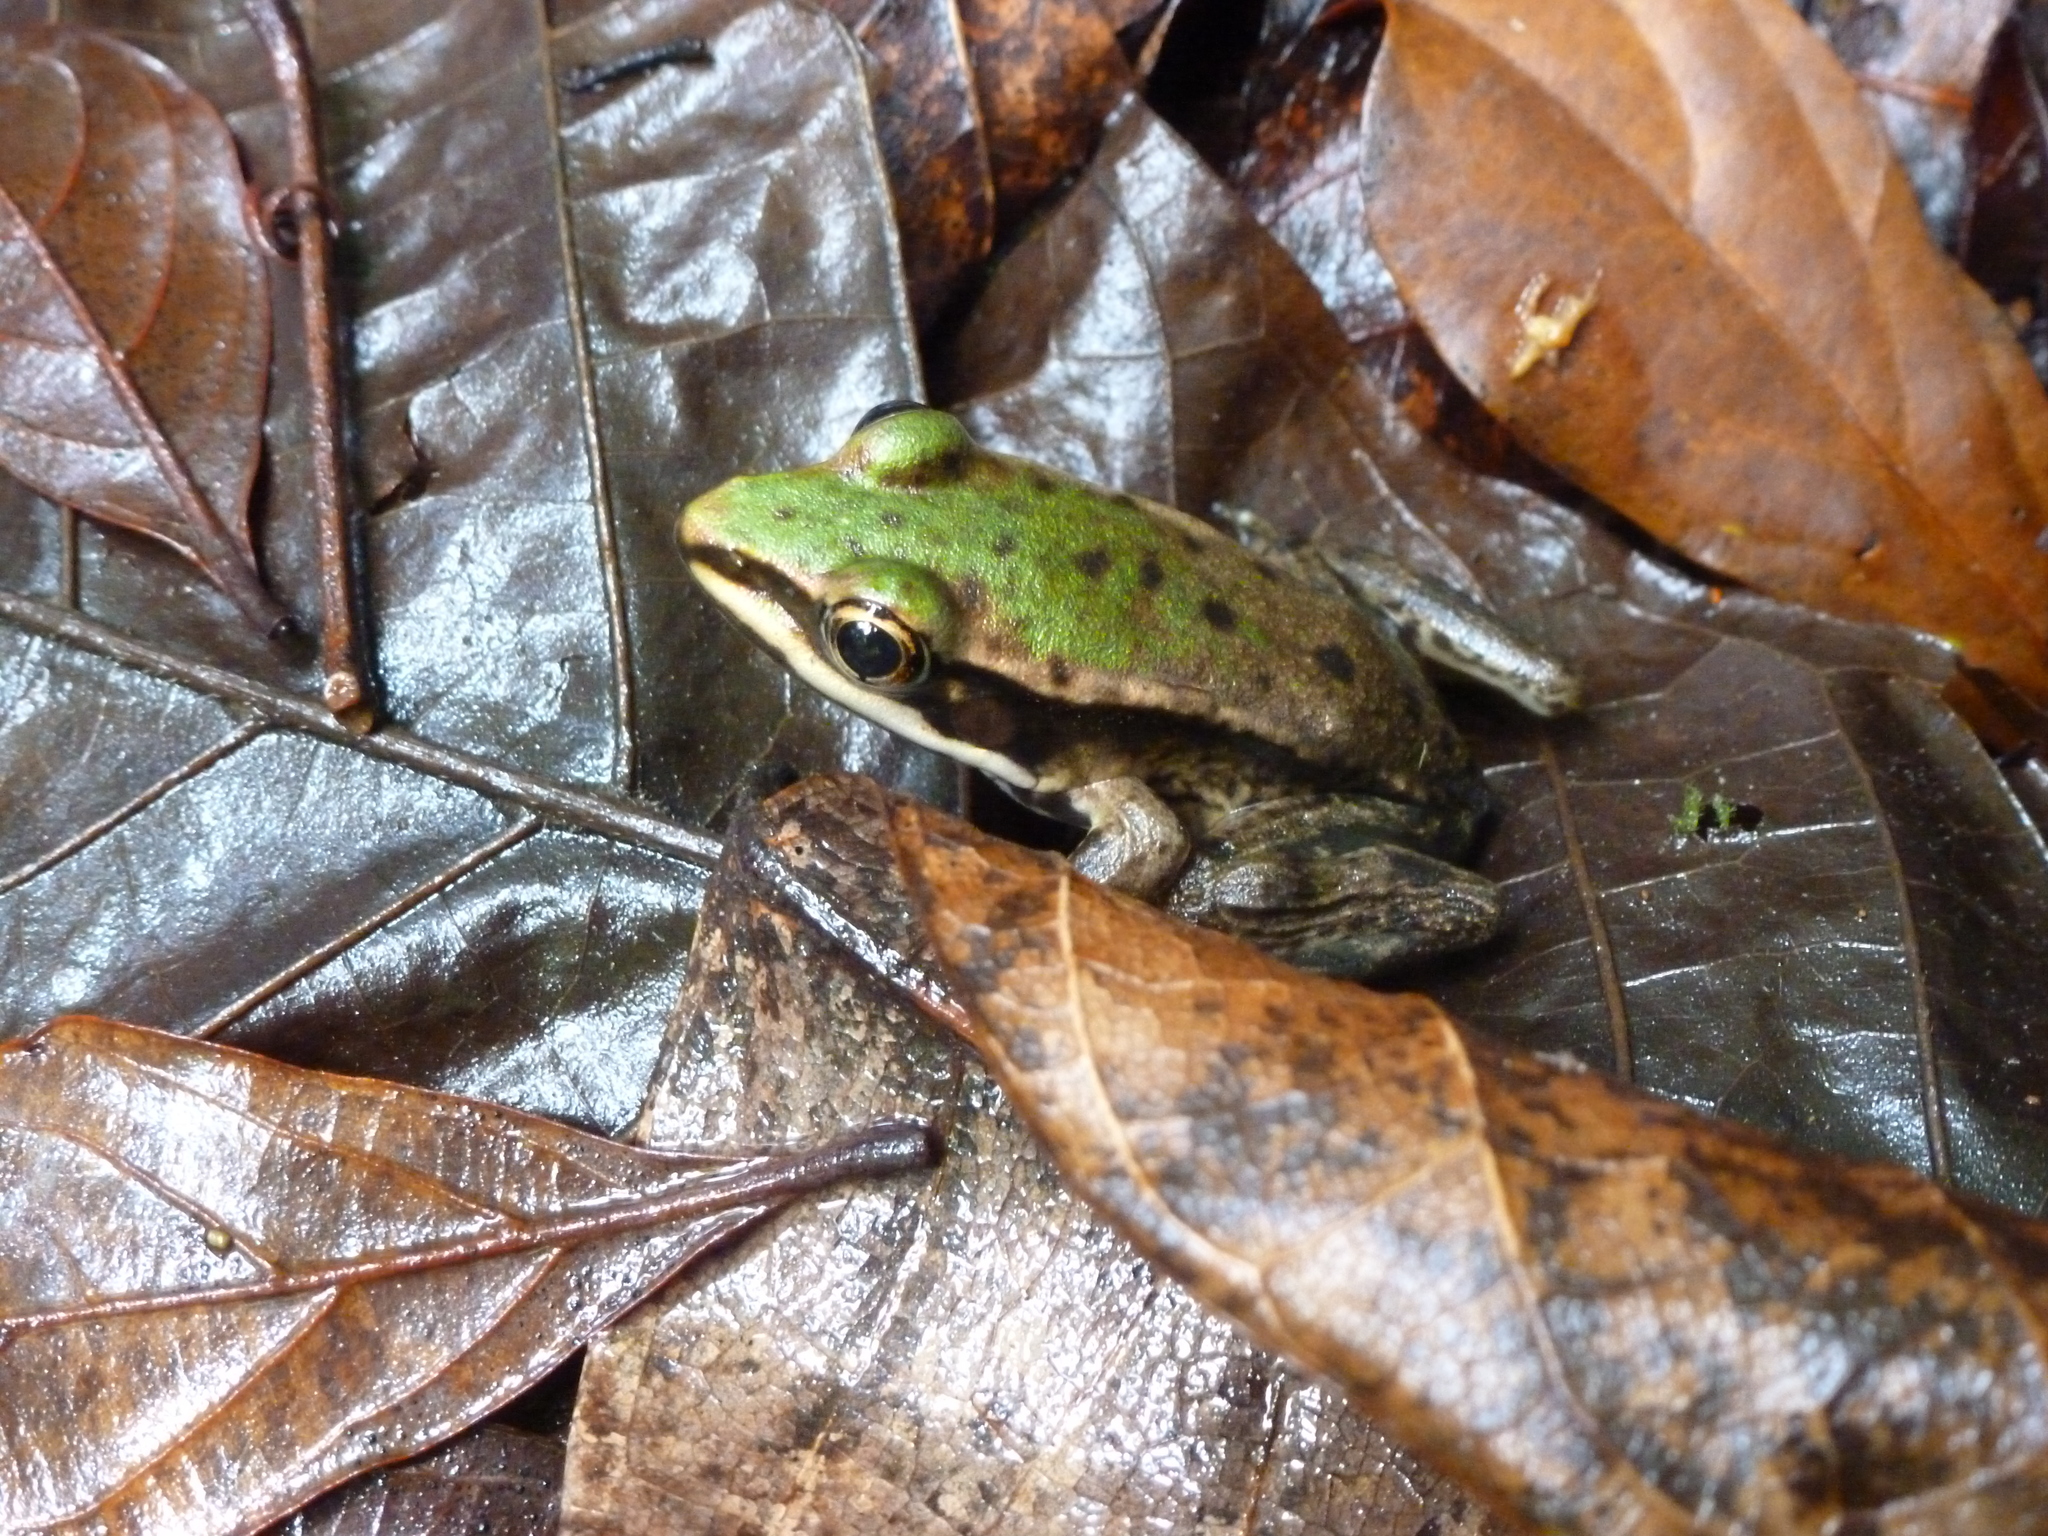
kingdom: Animalia
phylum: Chordata
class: Amphibia
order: Anura
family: Ranidae
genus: Lithobates
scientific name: Lithobates vaillanti
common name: Vaillant's frog
